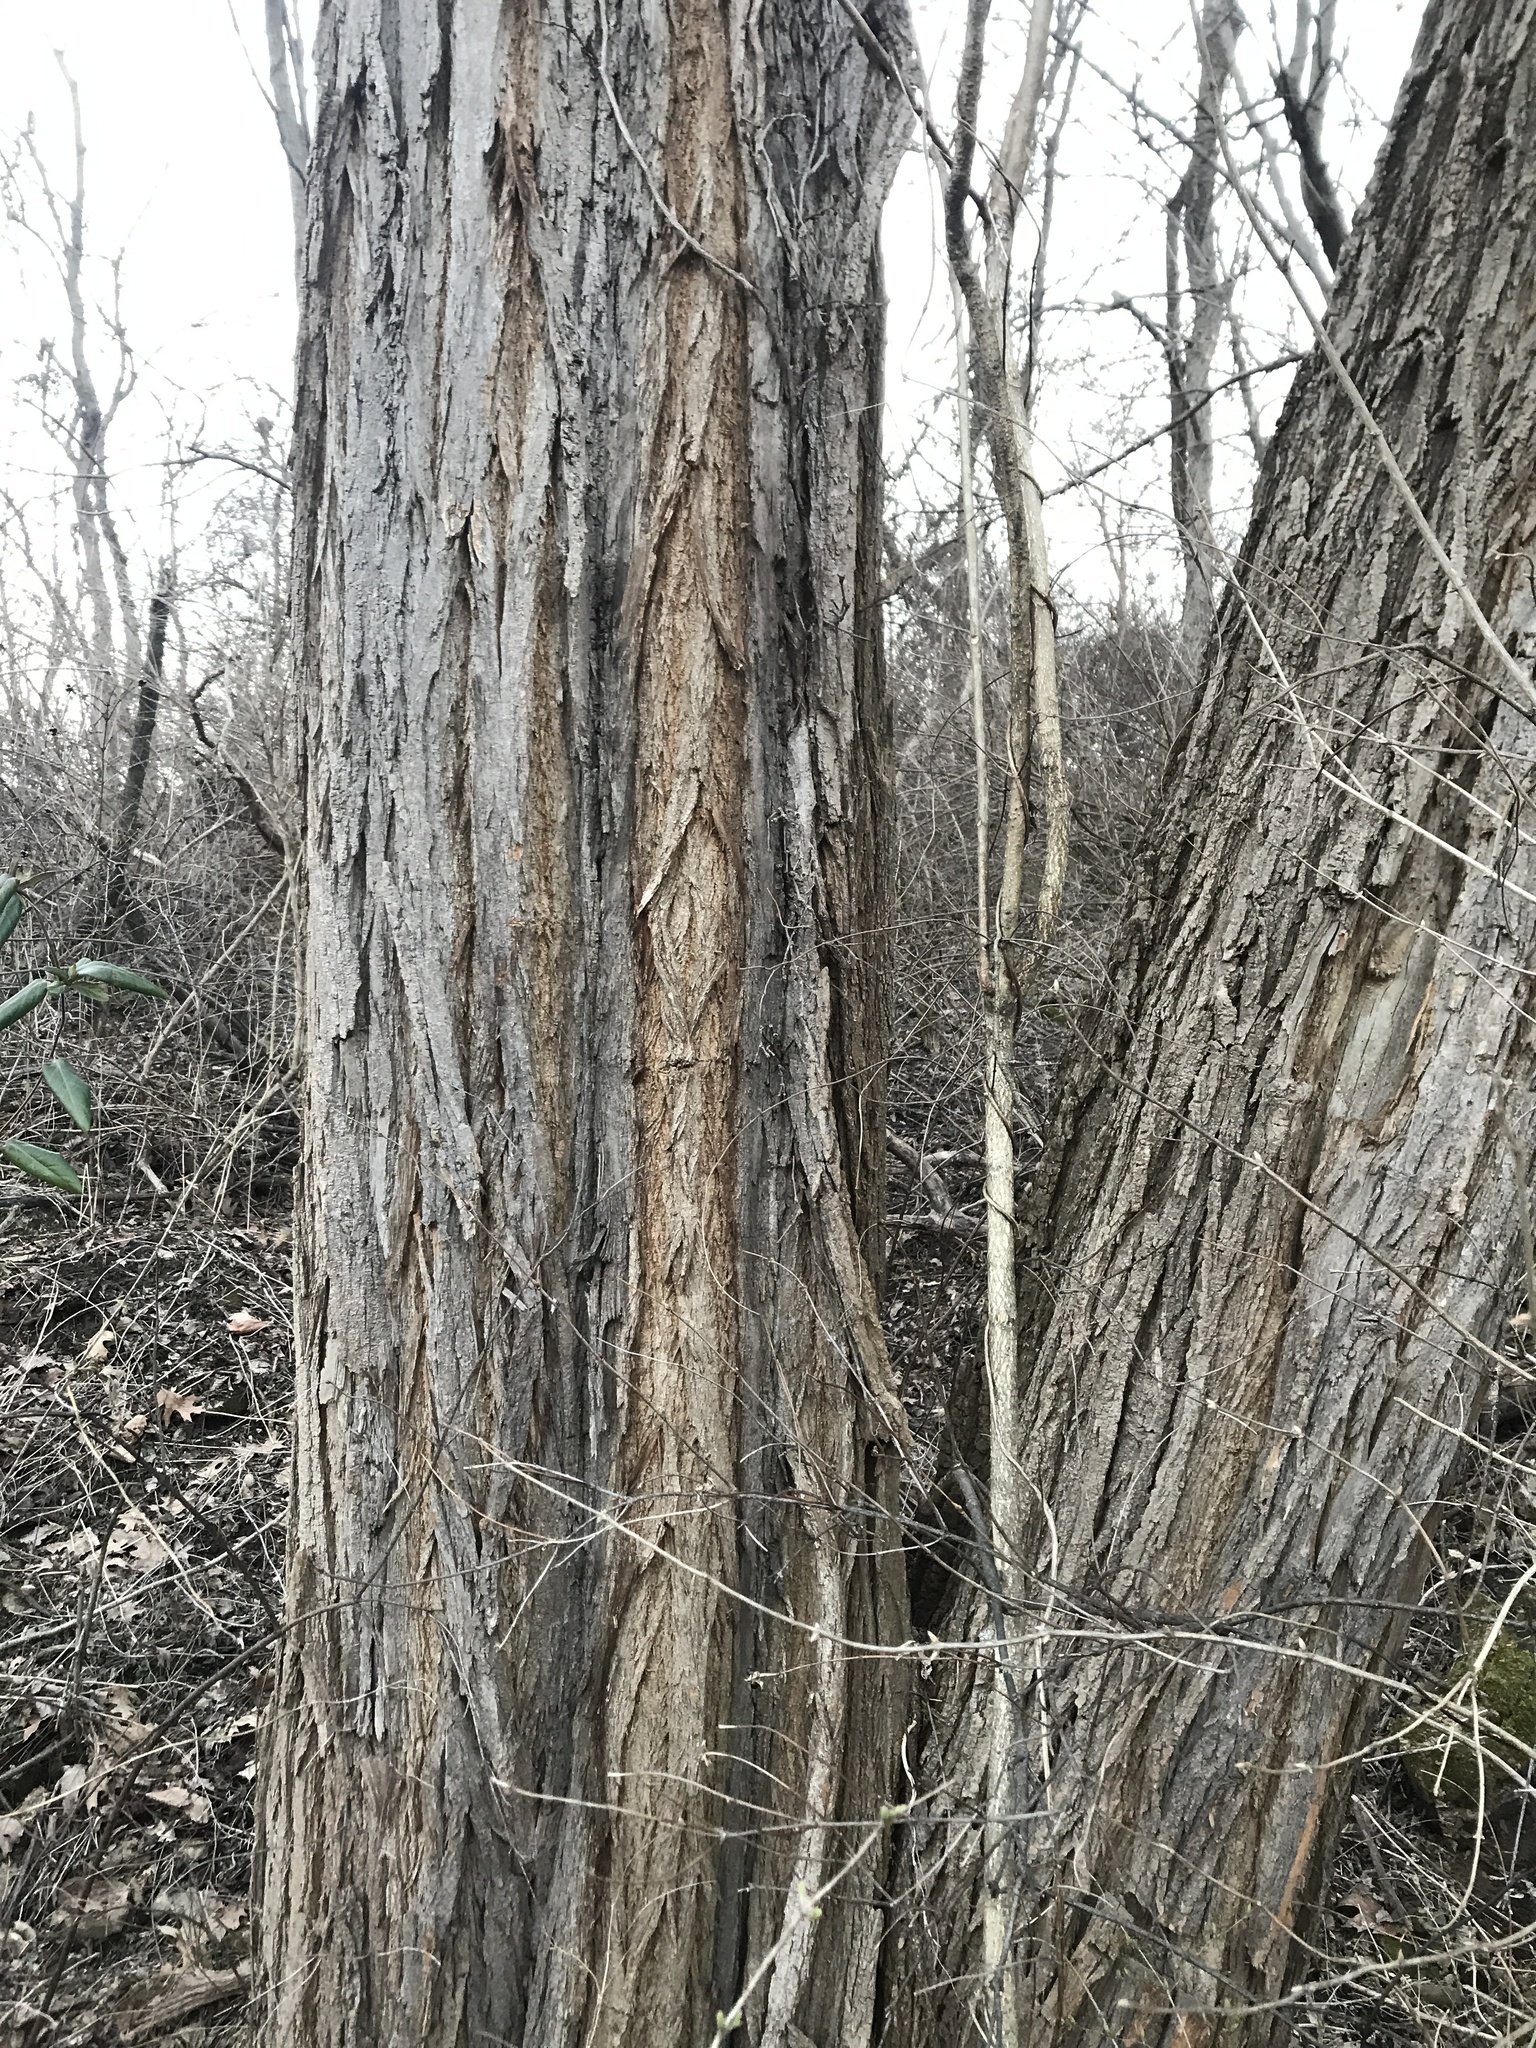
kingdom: Plantae
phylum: Tracheophyta
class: Magnoliopsida
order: Fabales
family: Fabaceae
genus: Robinia
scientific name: Robinia pseudoacacia
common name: Black locust
